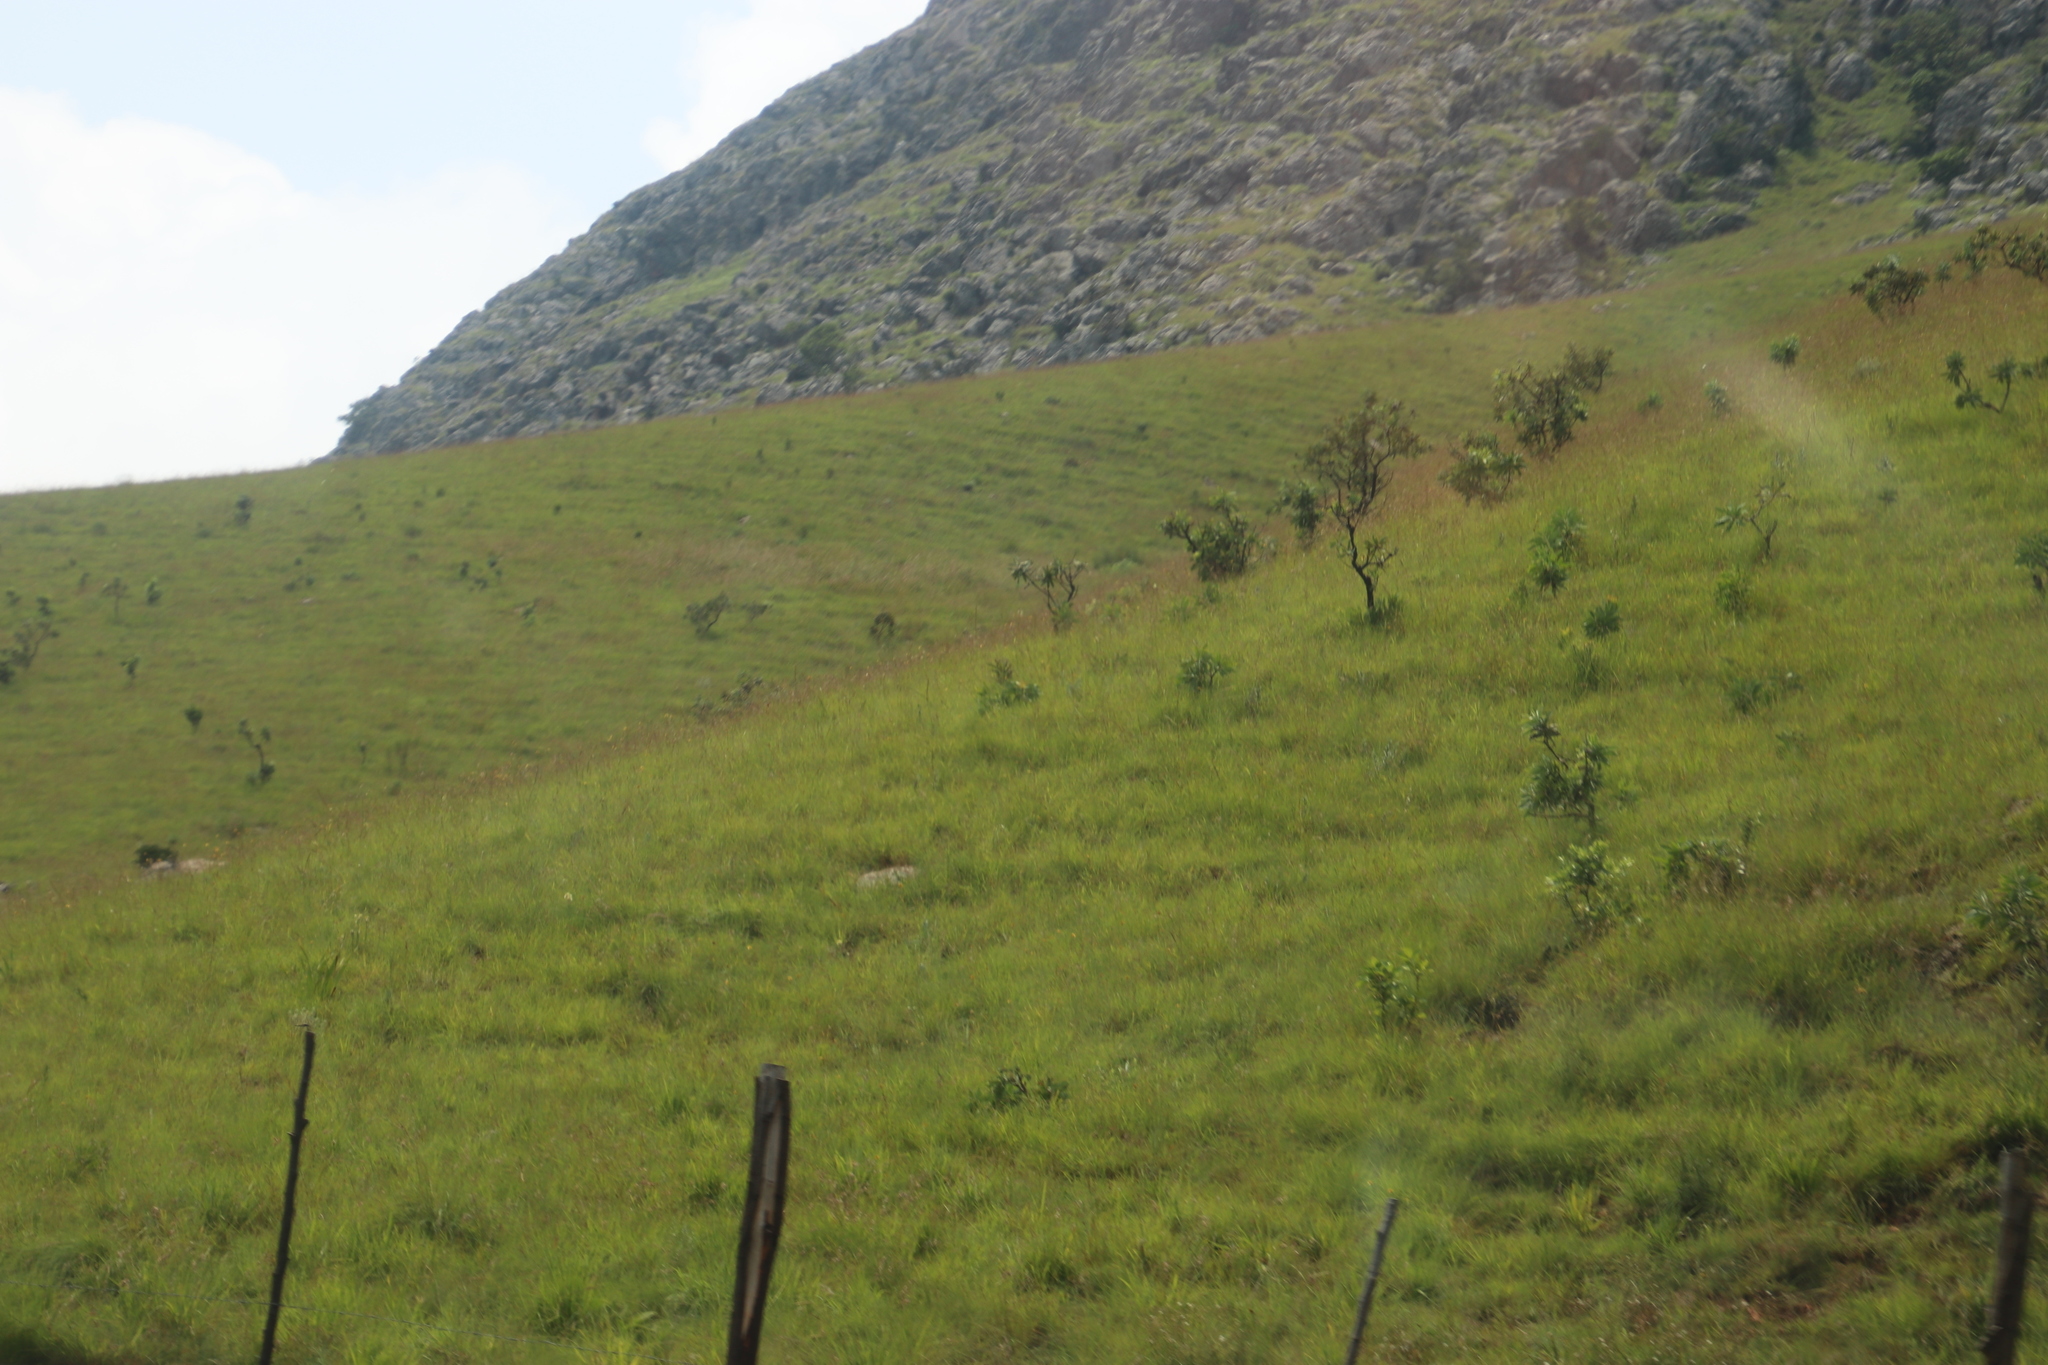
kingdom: Plantae
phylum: Tracheophyta
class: Magnoliopsida
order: Proteales
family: Proteaceae
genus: Protea
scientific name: Protea caffra
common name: Common sugarbush
